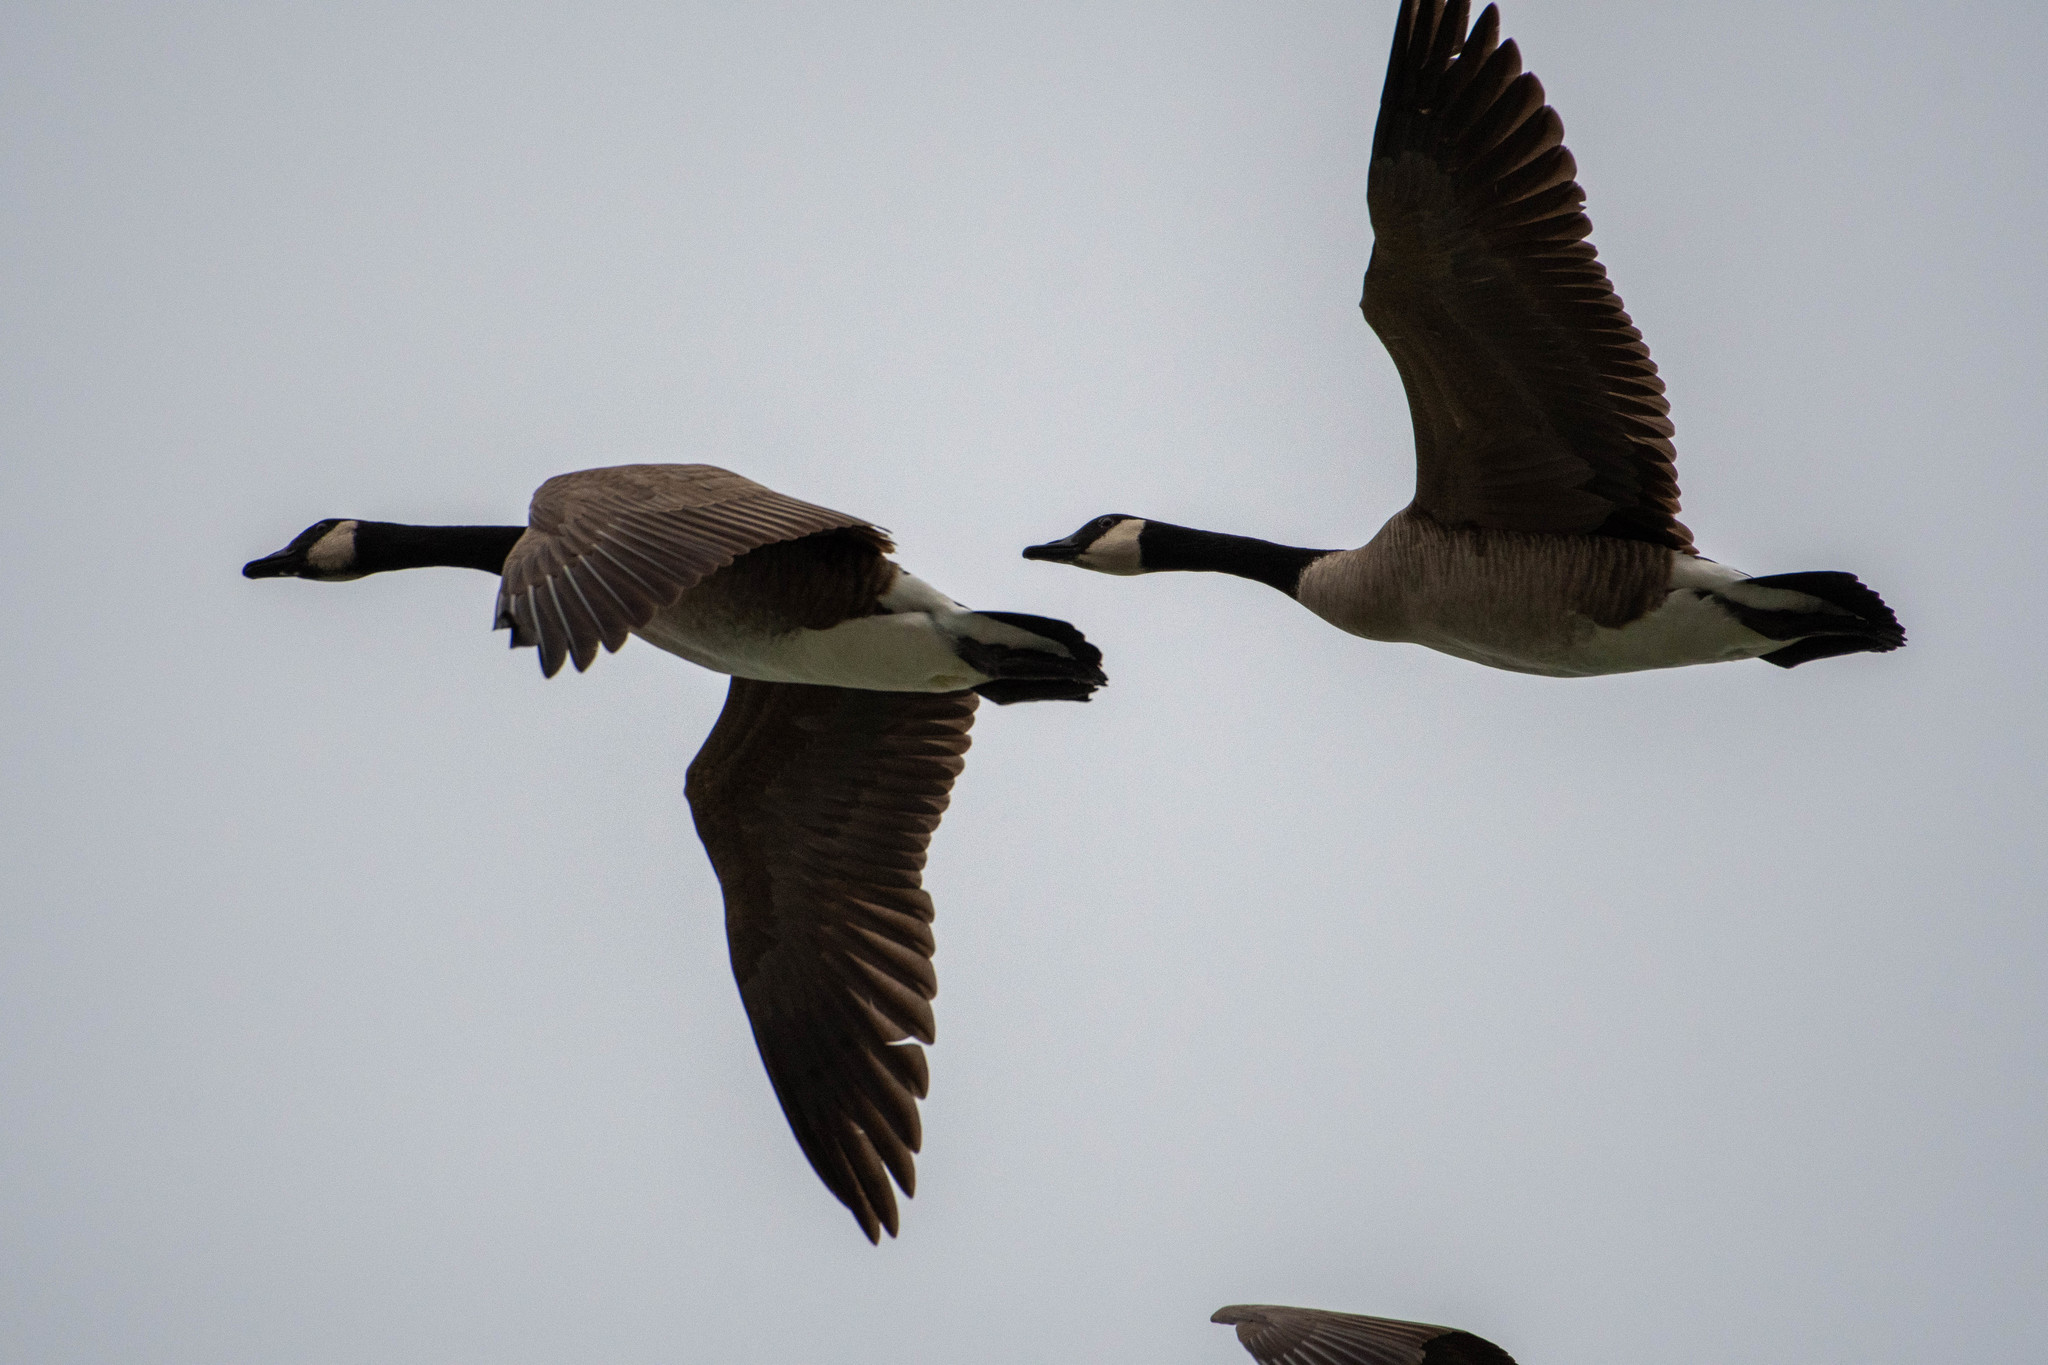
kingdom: Animalia
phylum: Chordata
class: Aves
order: Anseriformes
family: Anatidae
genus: Branta
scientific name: Branta canadensis
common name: Canada goose
